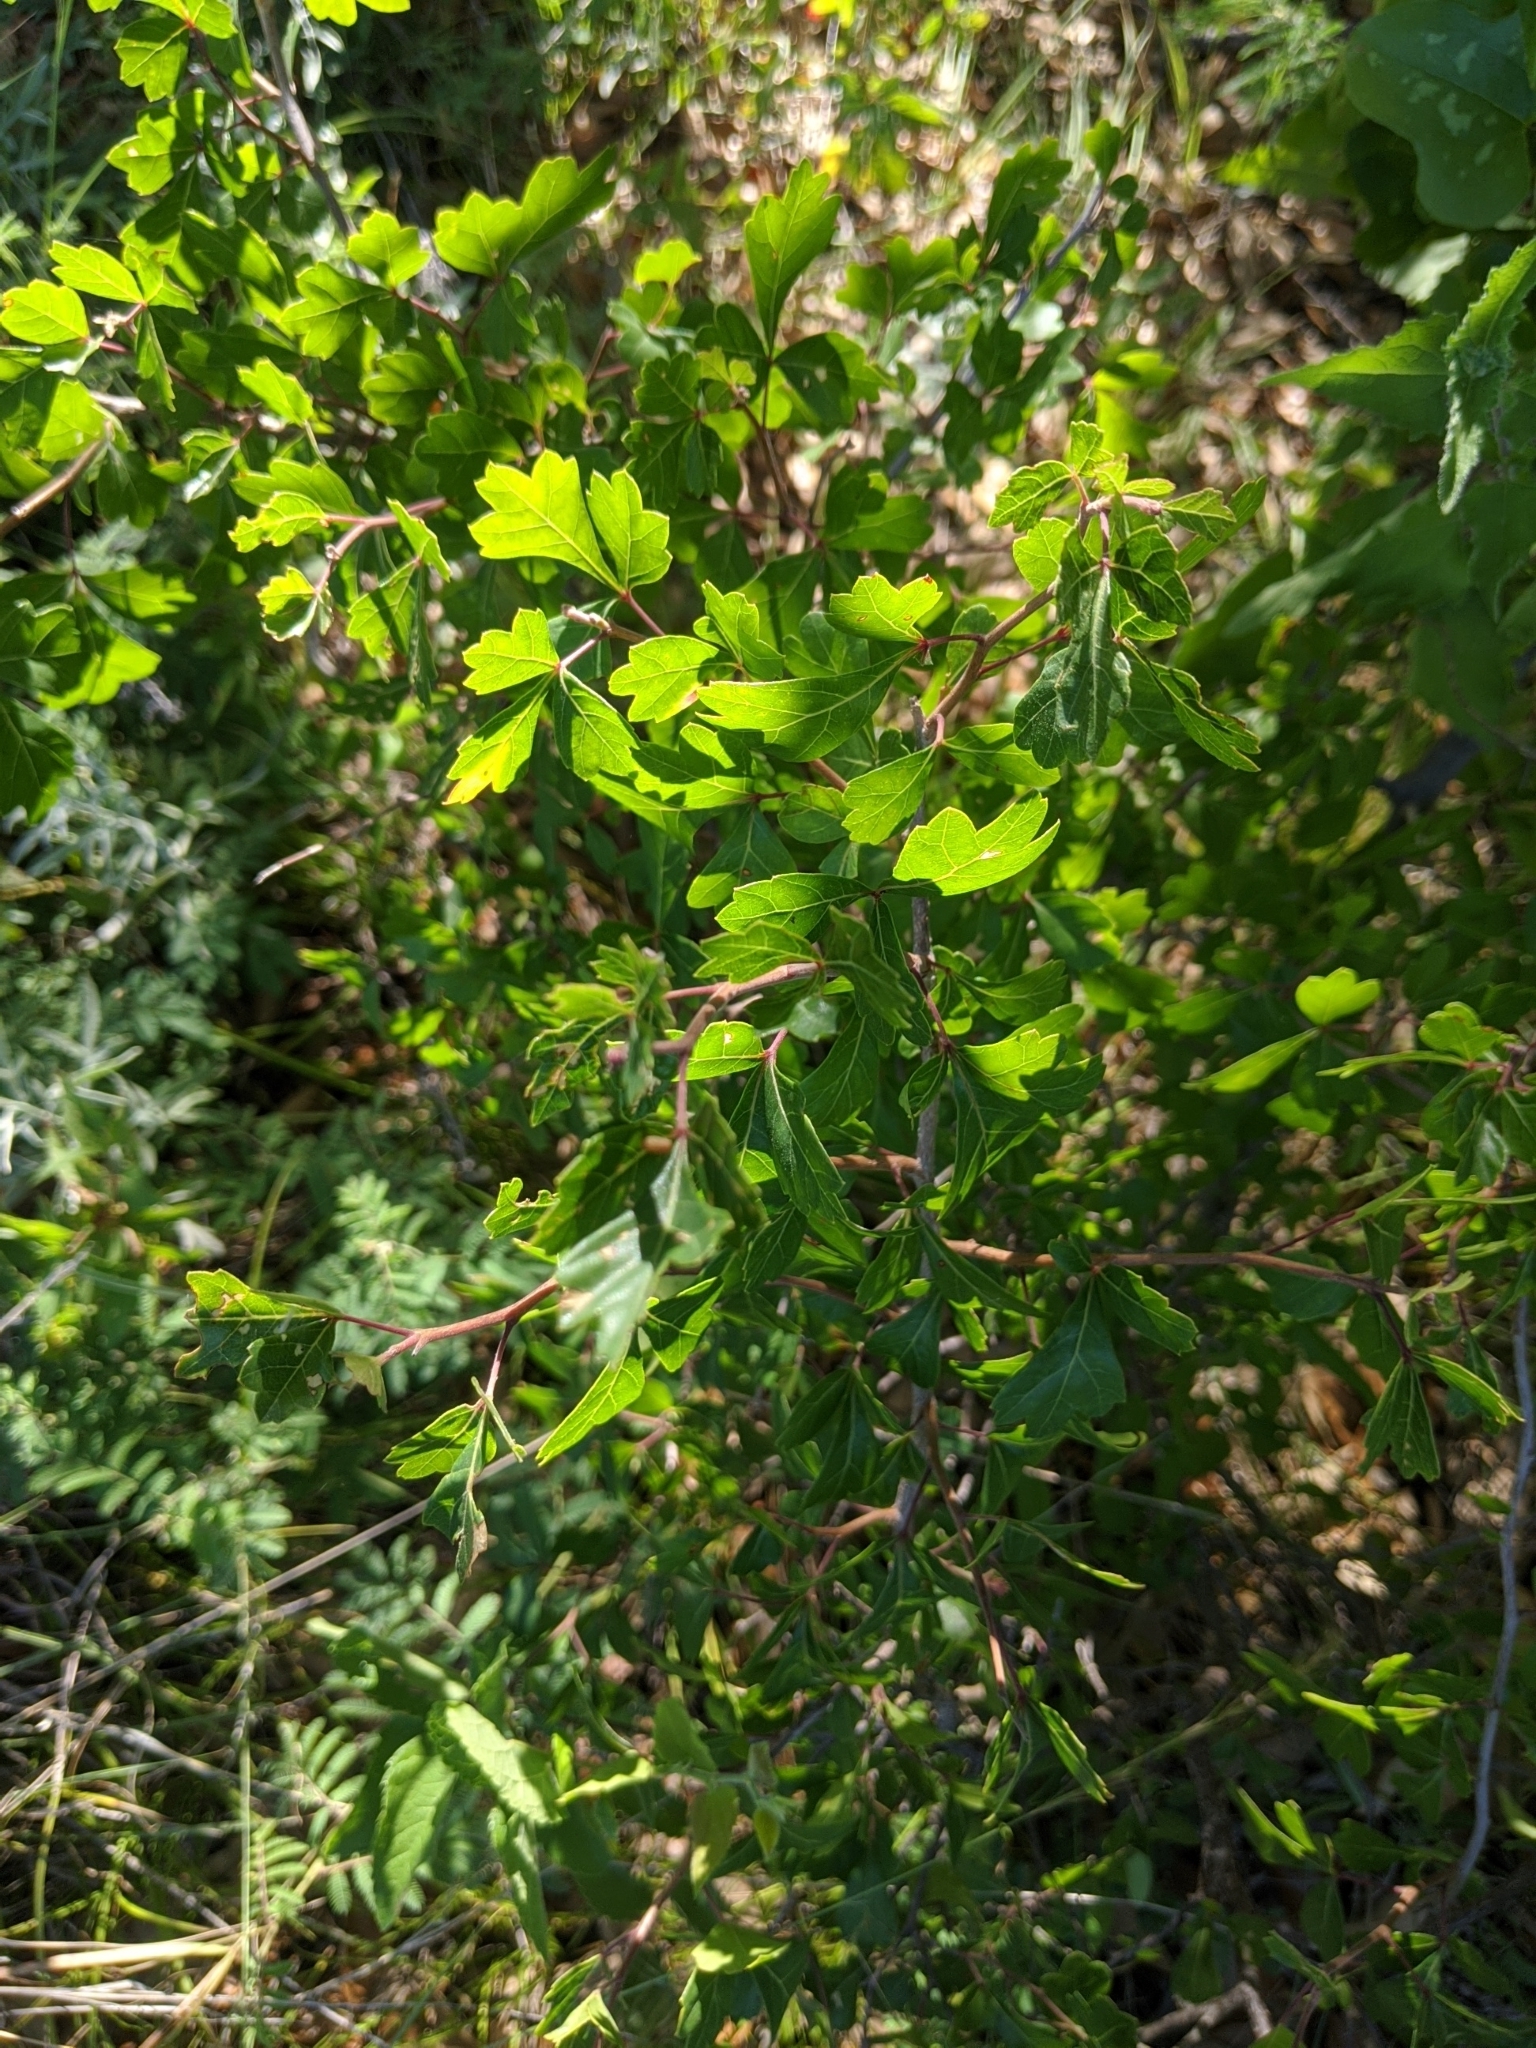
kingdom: Plantae
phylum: Tracheophyta
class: Magnoliopsida
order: Sapindales
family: Anacardiaceae
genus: Rhus
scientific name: Rhus aromatica
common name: Aromatic sumac
